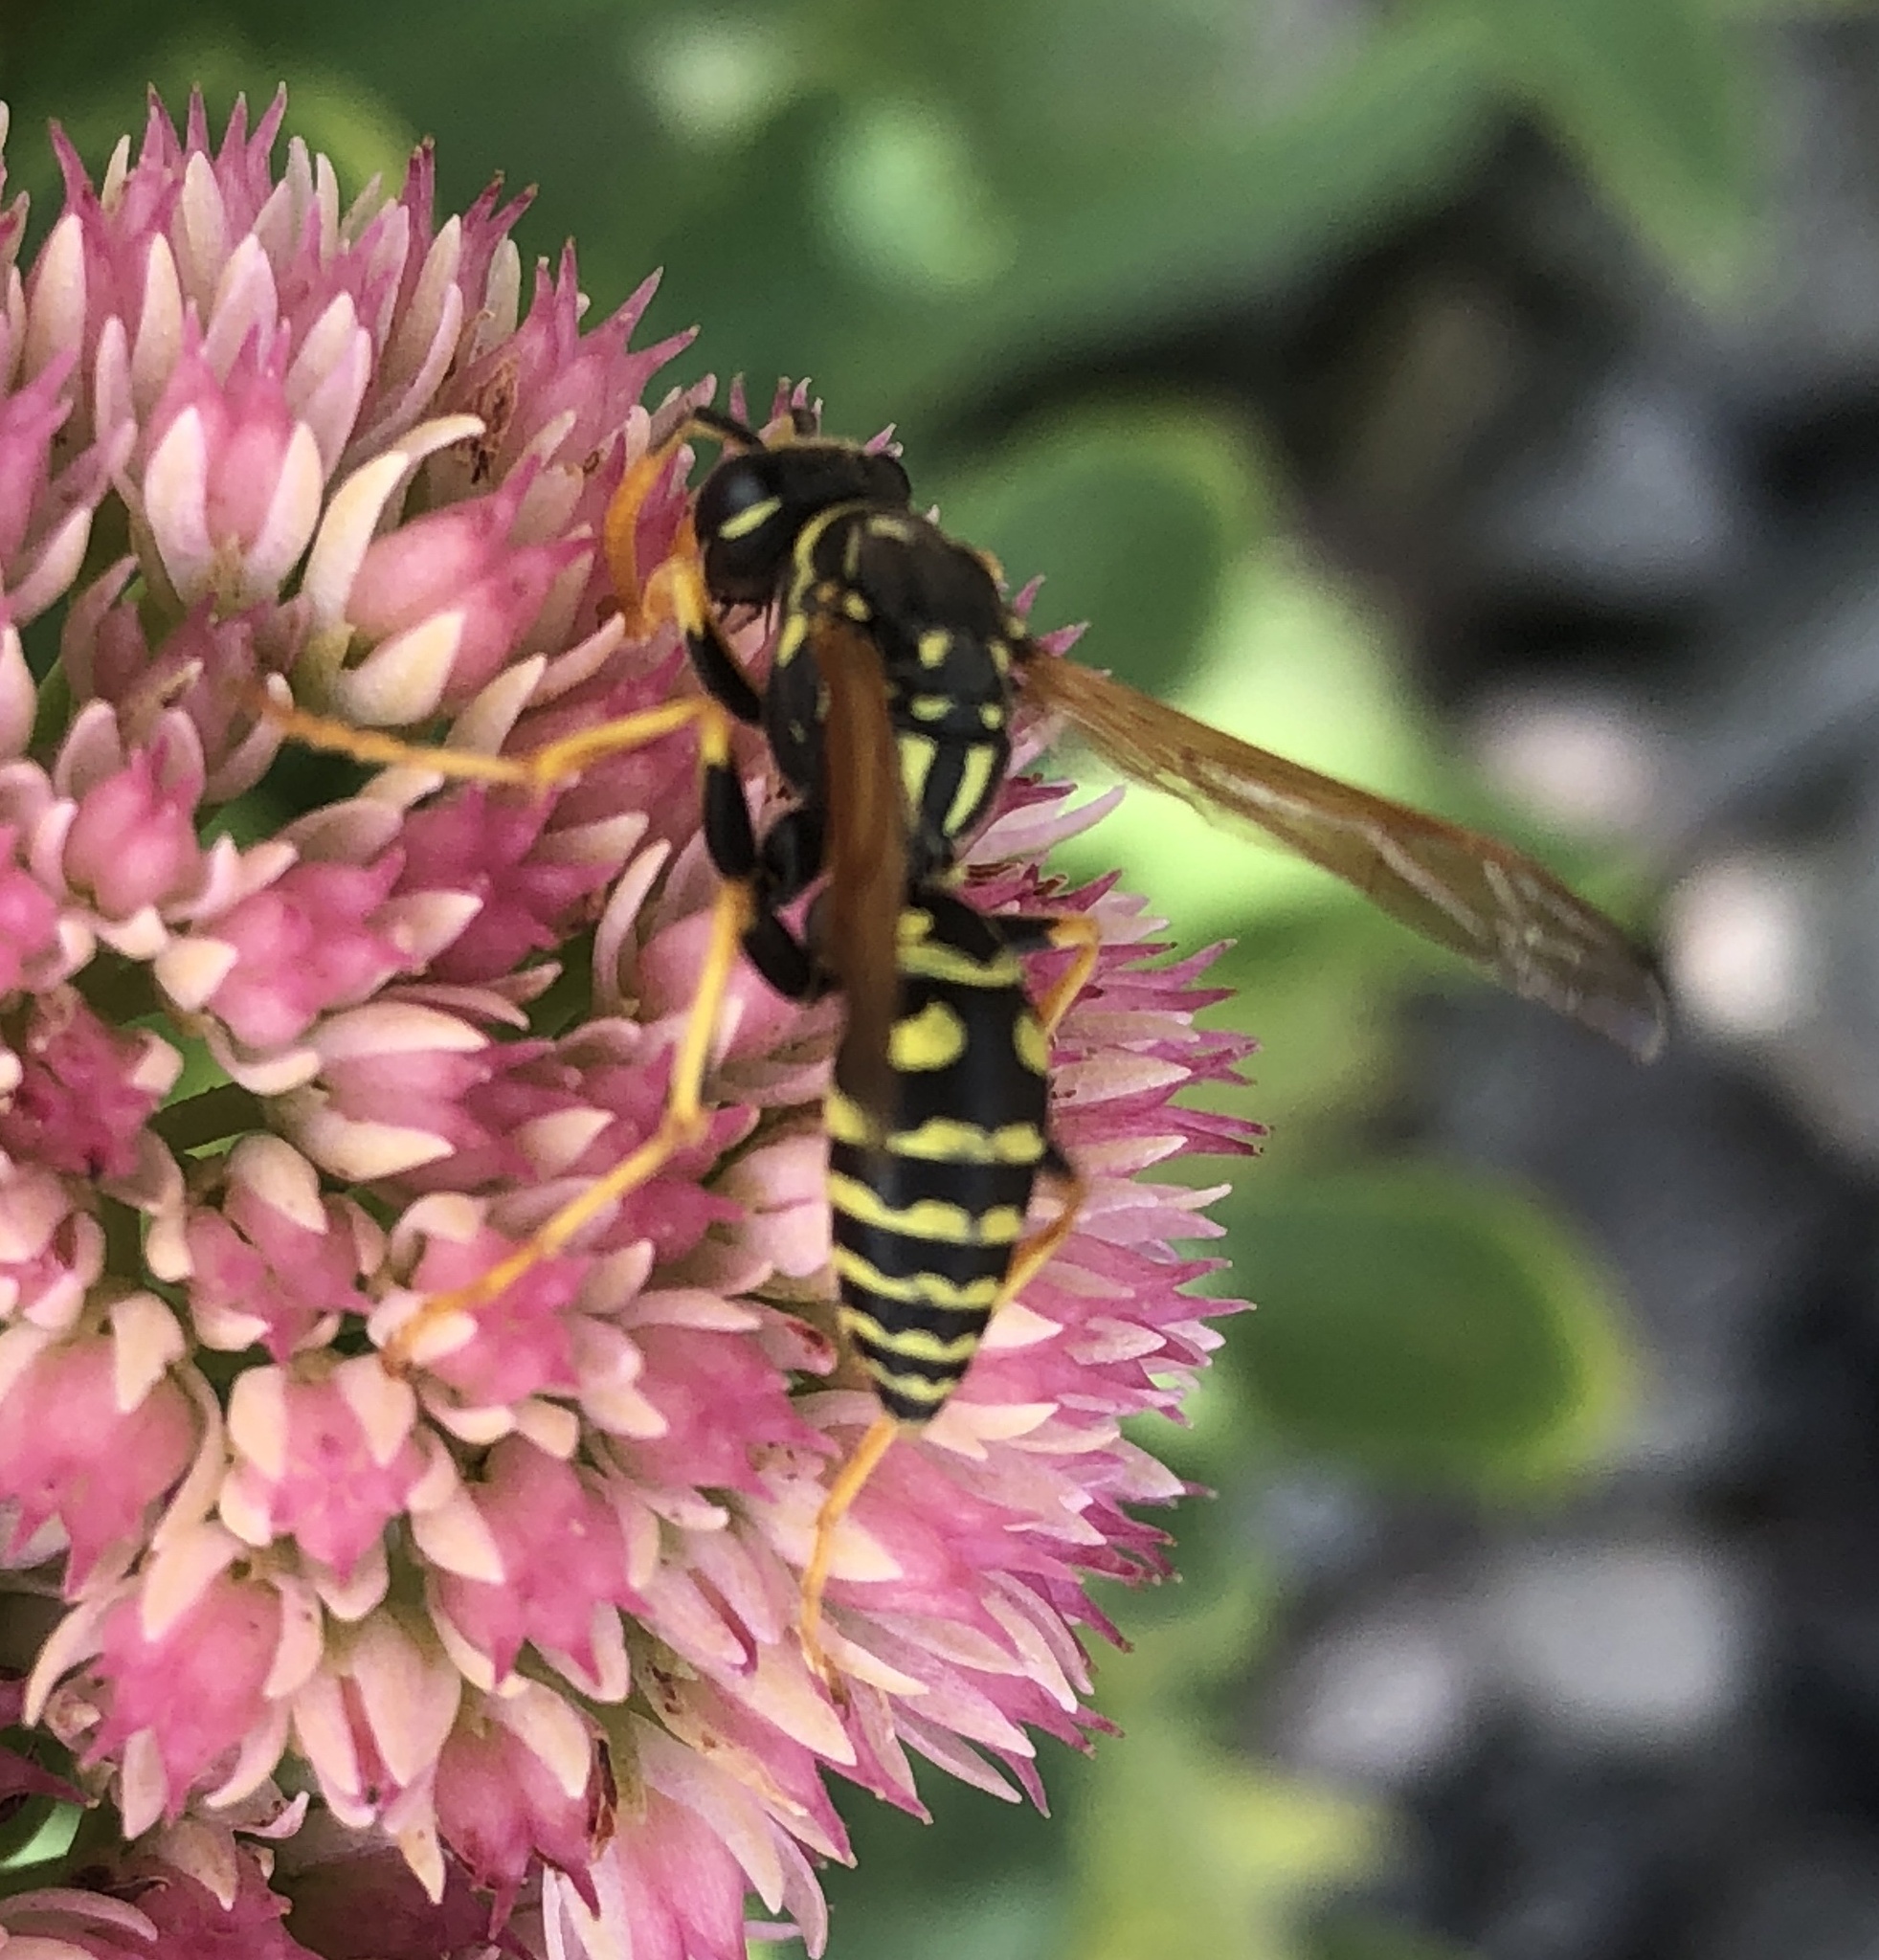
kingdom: Animalia
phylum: Arthropoda
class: Insecta
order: Hymenoptera
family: Eumenidae
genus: Polistes
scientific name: Polistes dominula
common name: Paper wasp
